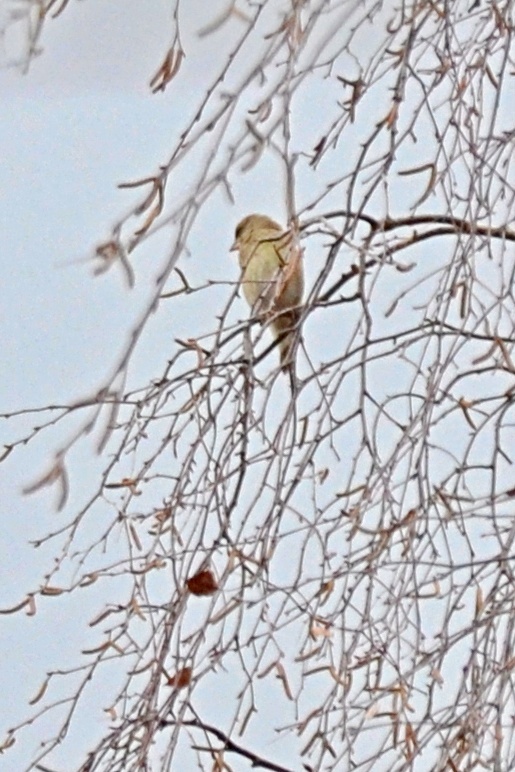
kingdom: Plantae
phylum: Tracheophyta
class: Liliopsida
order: Poales
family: Poaceae
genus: Chloris
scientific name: Chloris chloris
